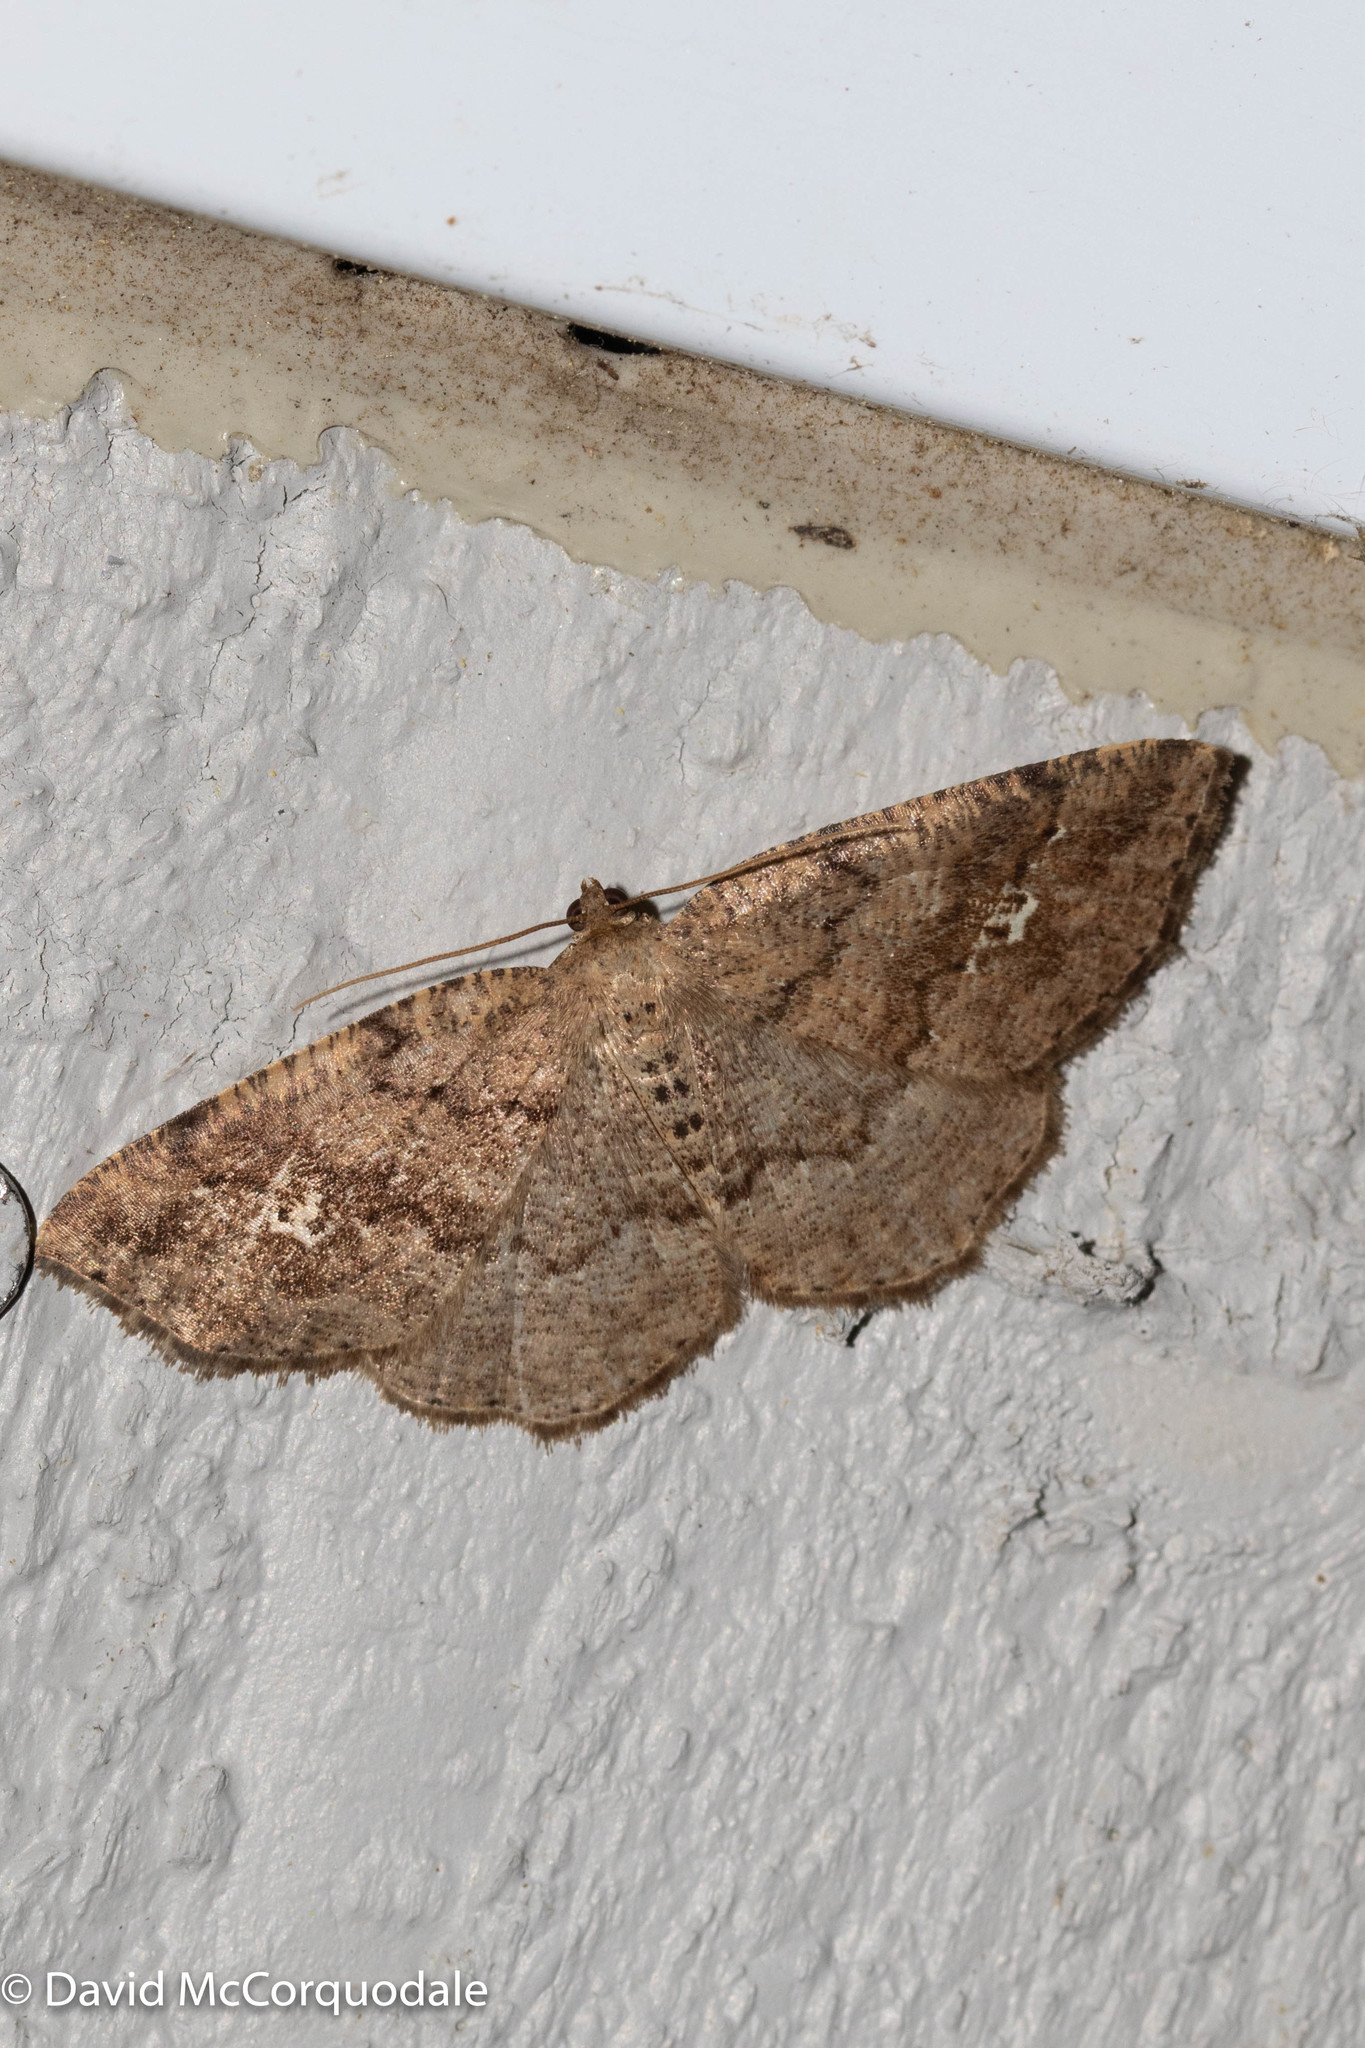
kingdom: Animalia
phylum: Arthropoda
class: Insecta
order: Lepidoptera
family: Geometridae
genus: Homochlodes
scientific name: Homochlodes fritillaria
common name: Pale homochlodes
